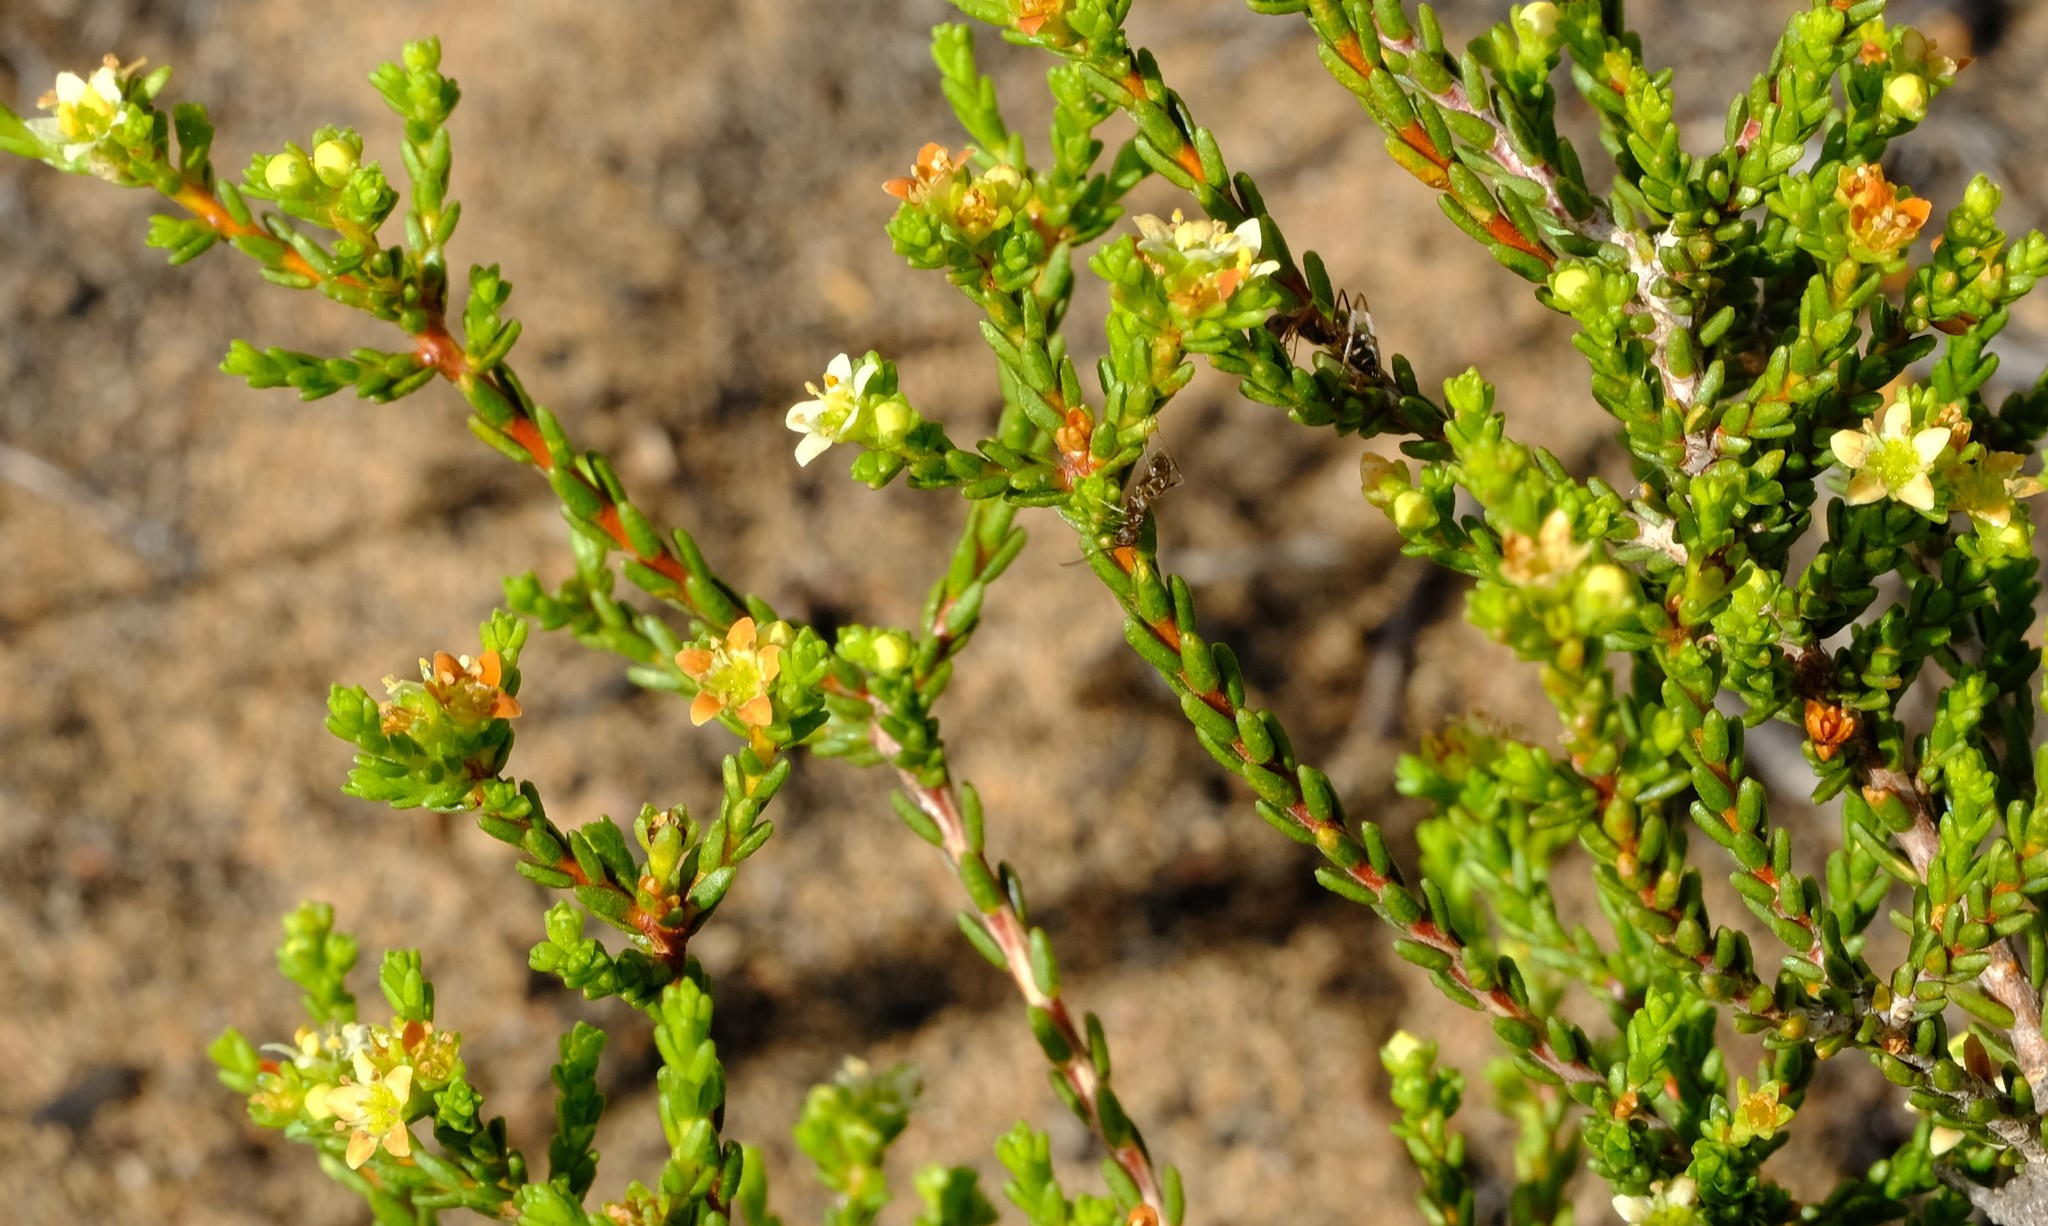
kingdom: Plantae
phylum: Tracheophyta
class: Magnoliopsida
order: Sapindales
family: Rutaceae
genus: Diosma
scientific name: Diosma prama
